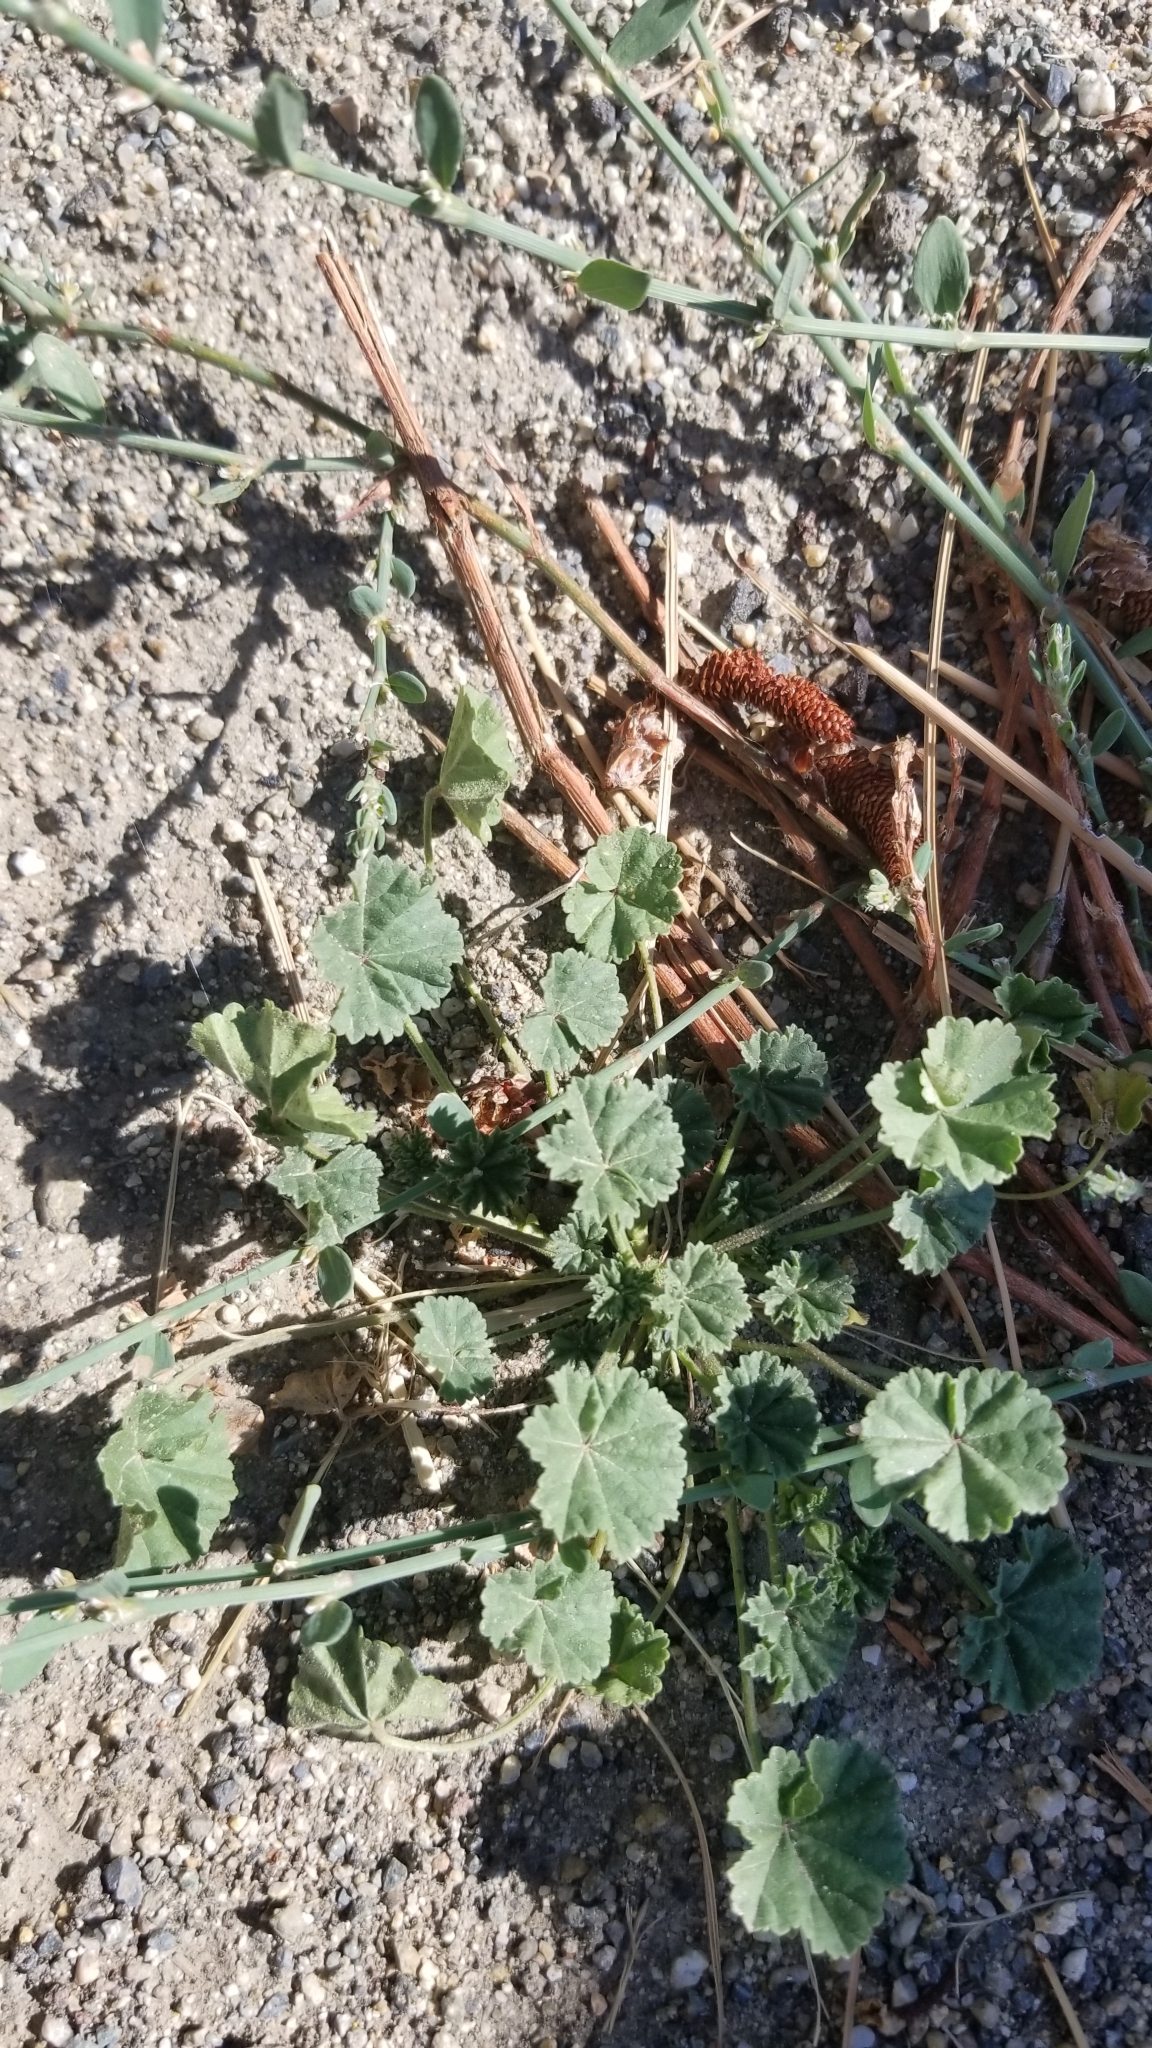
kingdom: Plantae
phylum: Tracheophyta
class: Magnoliopsida
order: Malvales
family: Malvaceae
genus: Malva
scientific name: Malva
